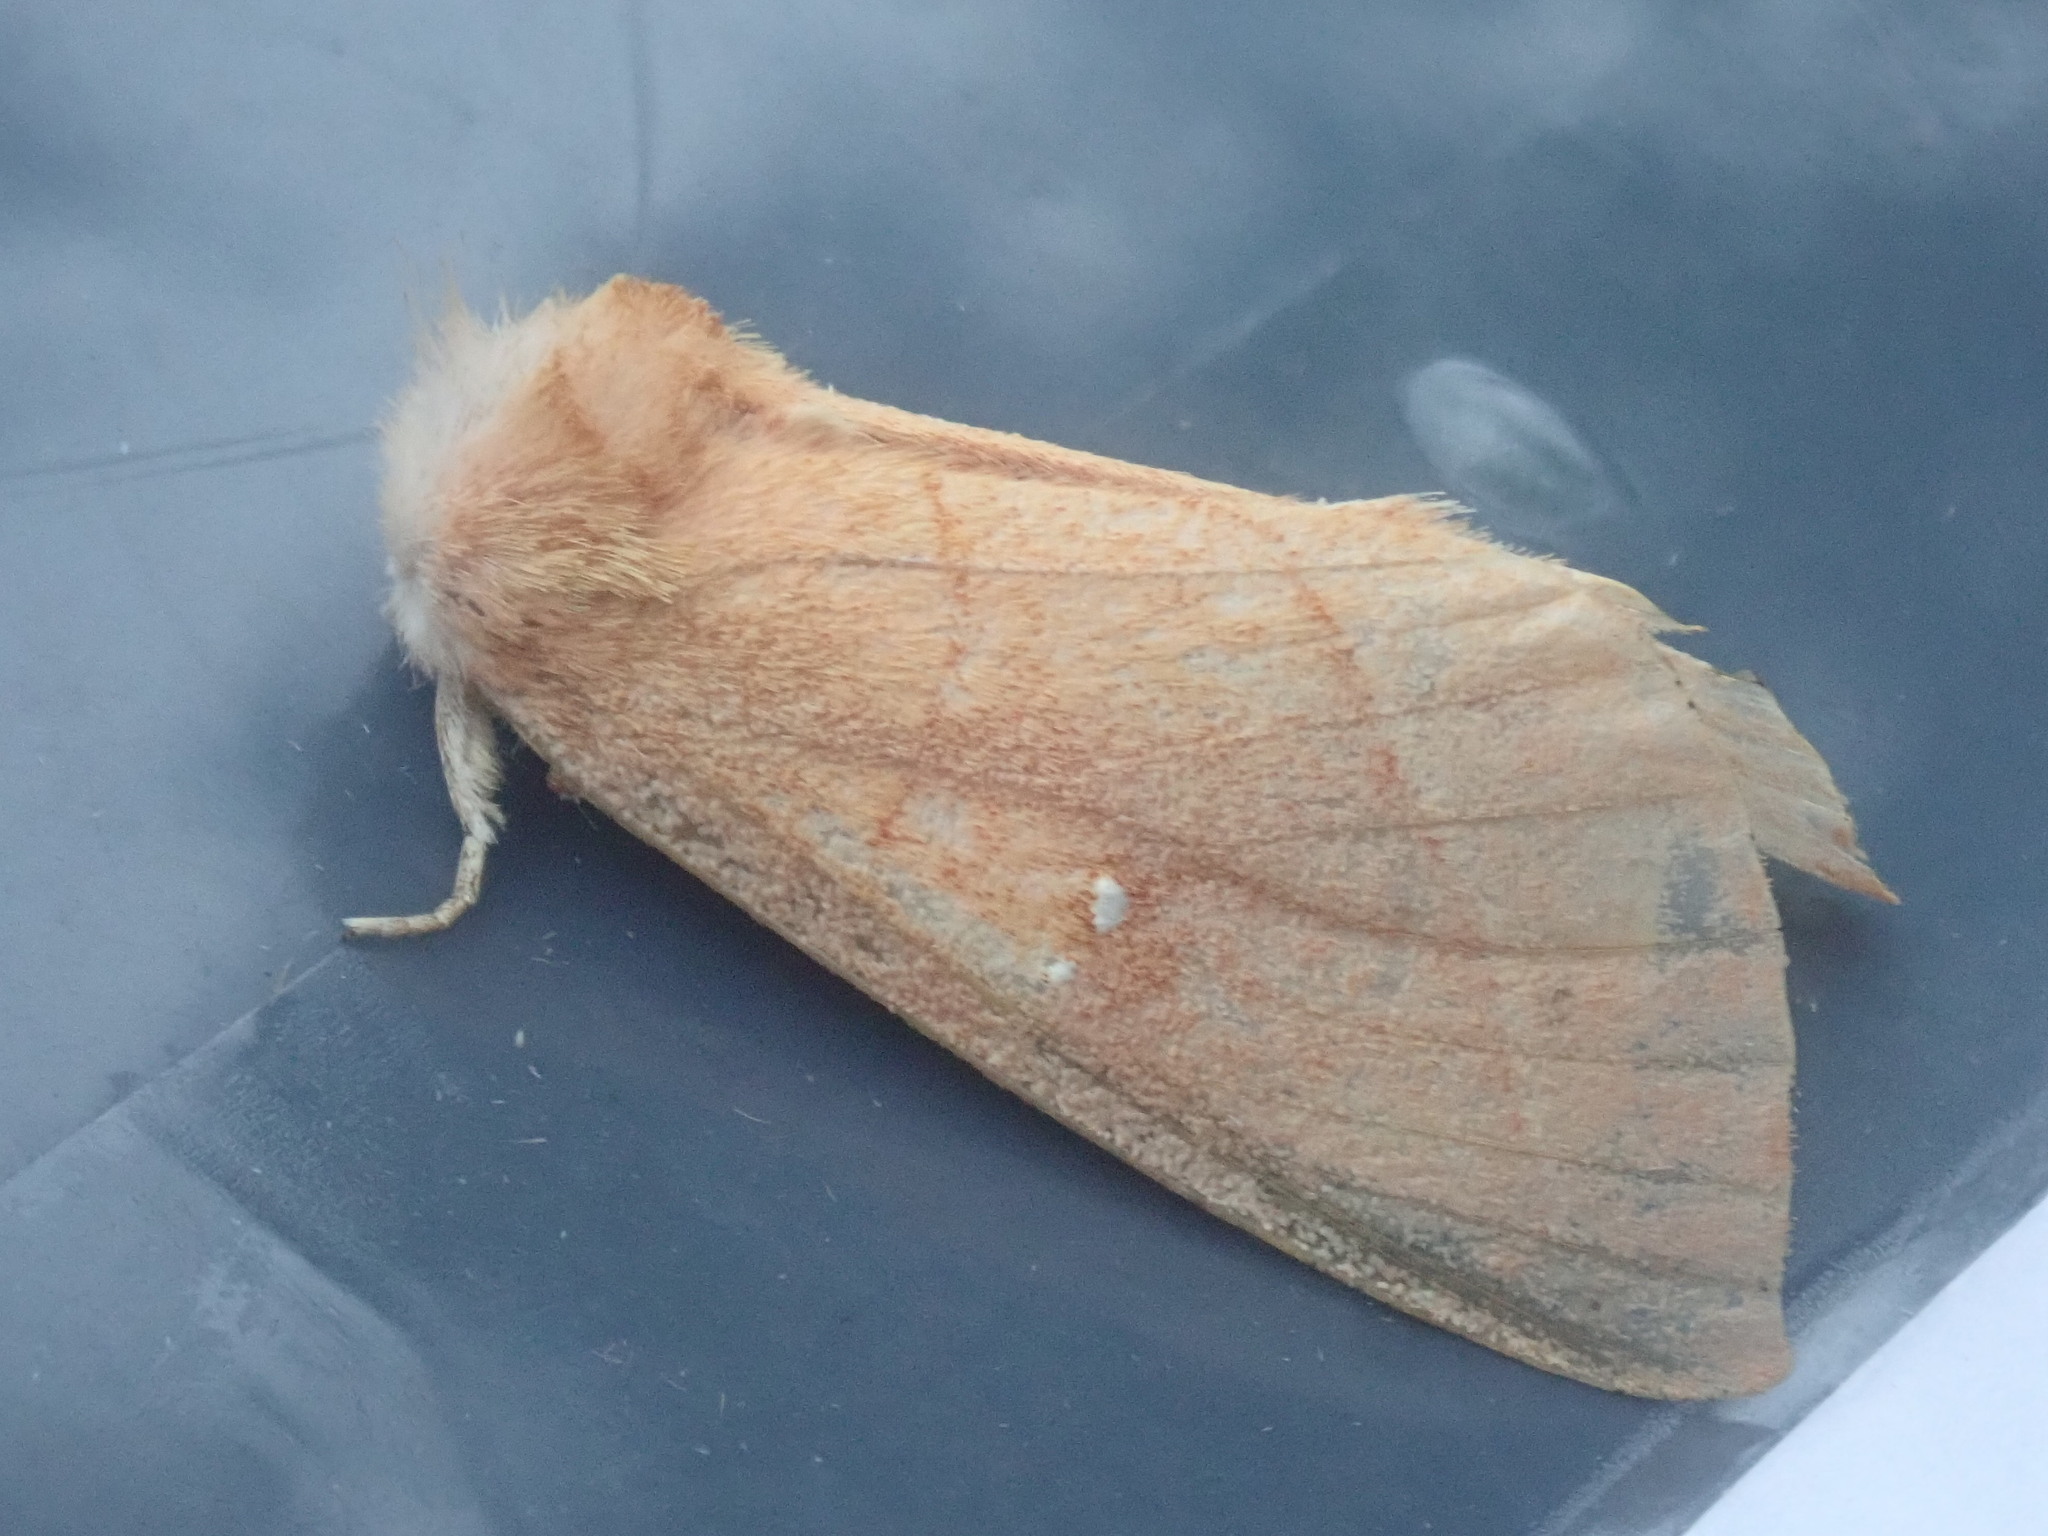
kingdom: Animalia
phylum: Arthropoda
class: Insecta
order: Lepidoptera
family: Notodontidae
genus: Nadata
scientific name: Nadata gibbosa
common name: White-dotted prominent
